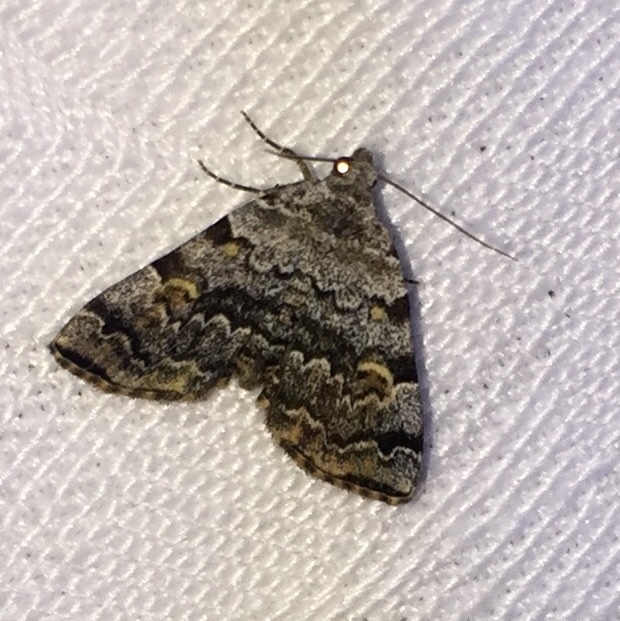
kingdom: Animalia
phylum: Arthropoda
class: Insecta
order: Lepidoptera
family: Erebidae
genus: Idia
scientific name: Idia americalis
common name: American idia moth
